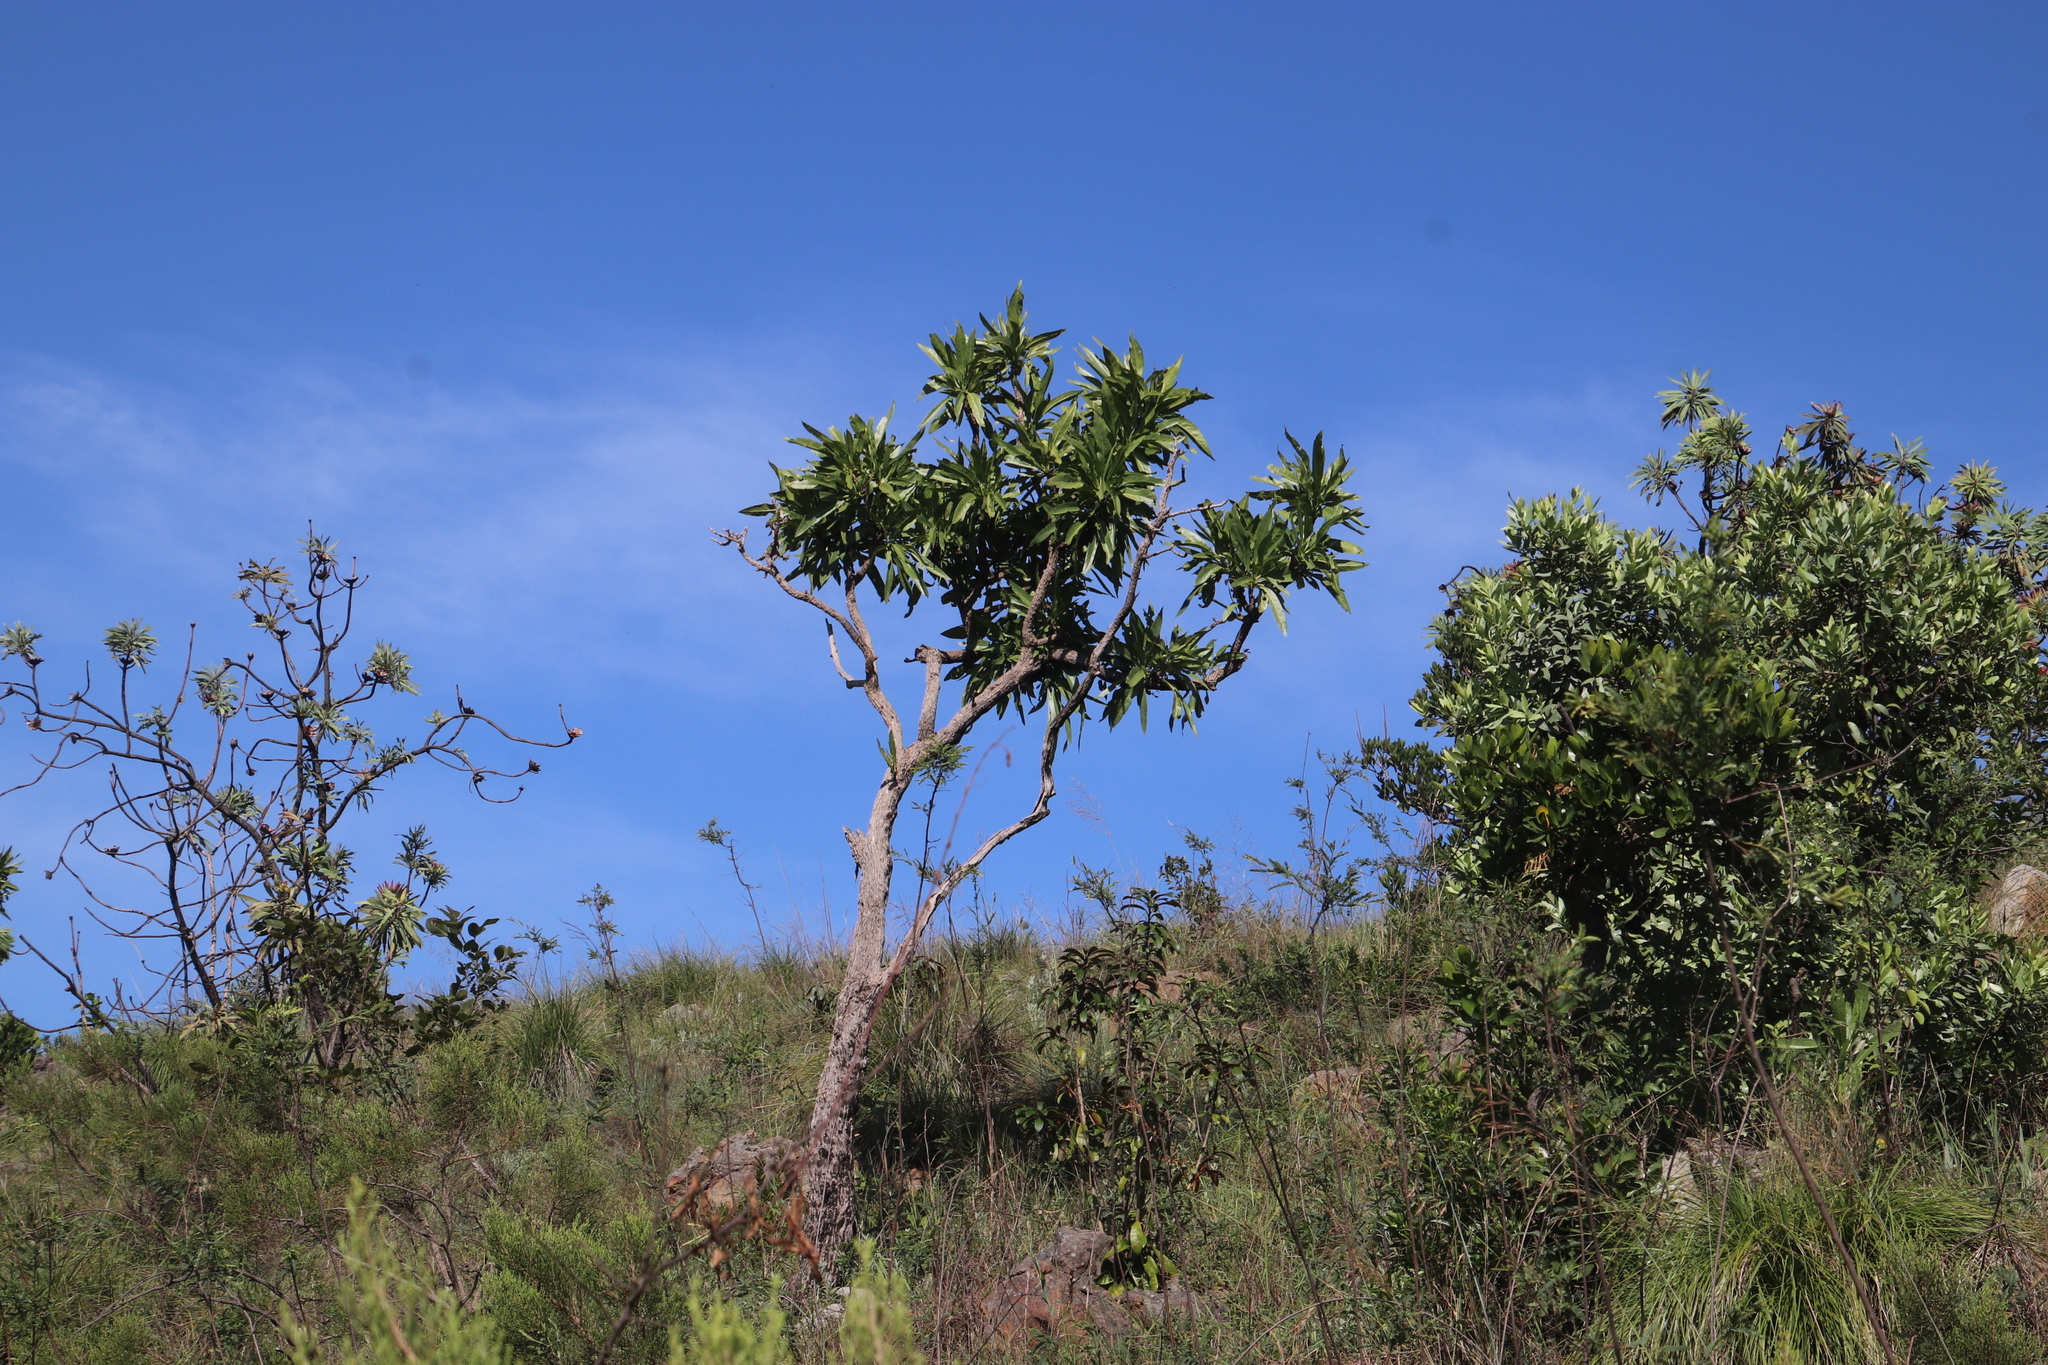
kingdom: Plantae
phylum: Tracheophyta
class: Magnoliopsida
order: Gentianales
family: Rubiaceae
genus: Pavetta
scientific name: Pavetta edentula
